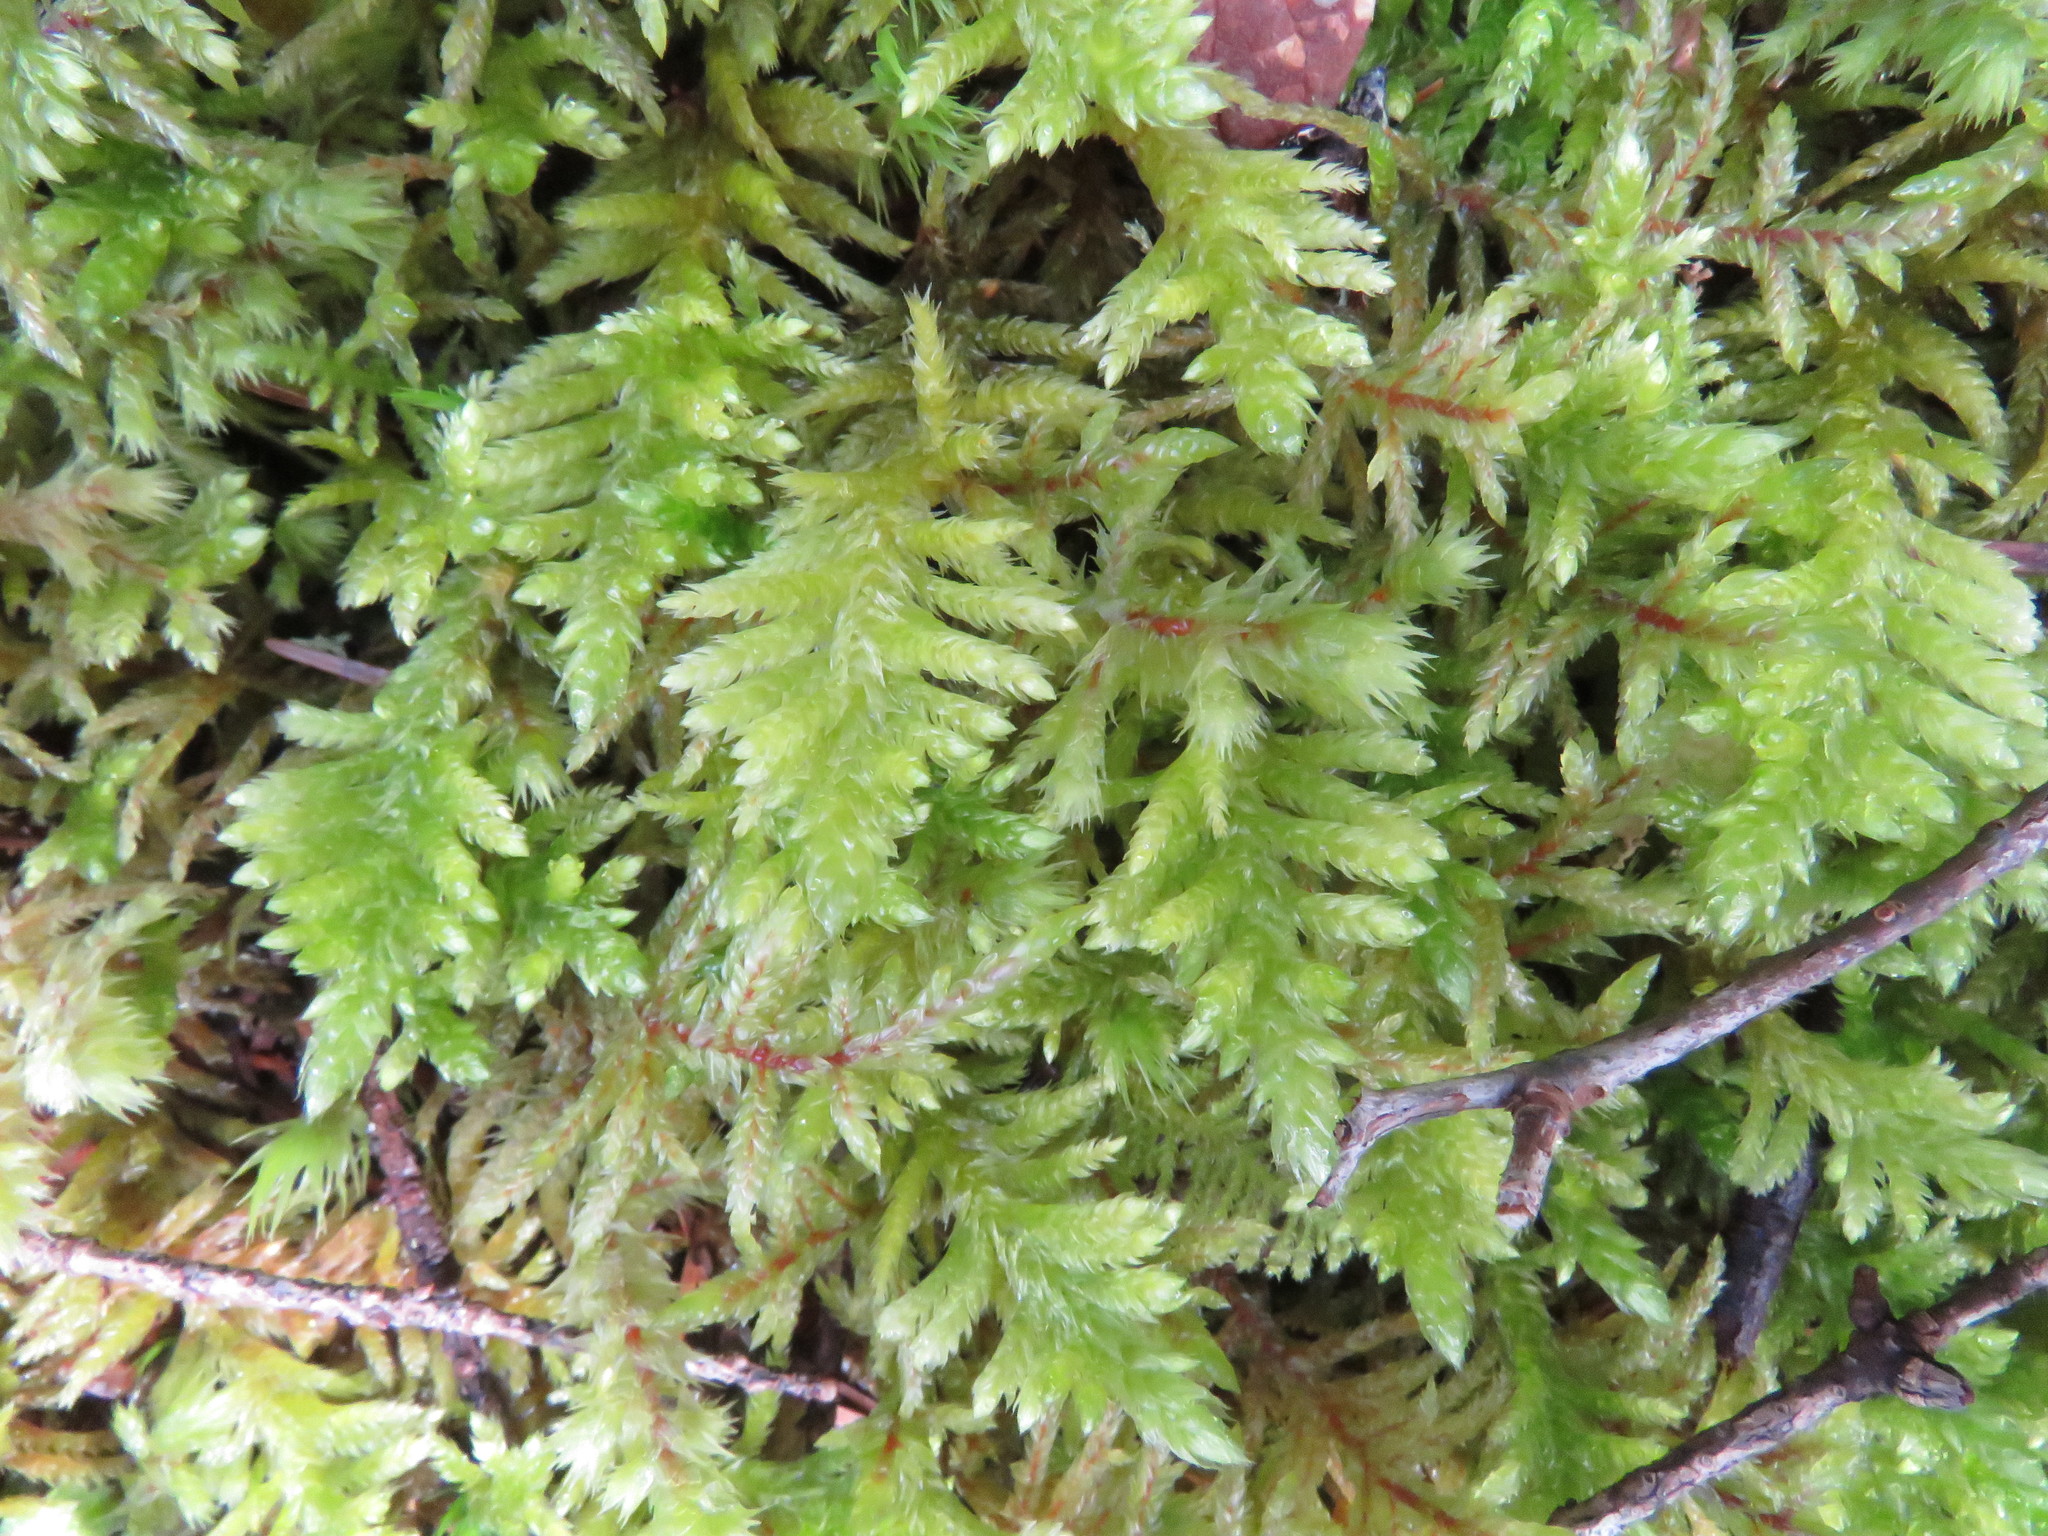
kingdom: Plantae
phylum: Bryophyta
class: Bryopsida
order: Hypnales
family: Brachytheciaceae
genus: Kindbergia
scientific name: Kindbergia oregana
